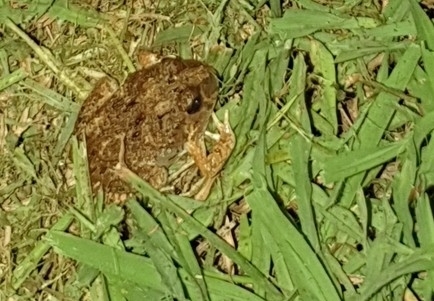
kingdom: Animalia
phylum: Chordata
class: Amphibia
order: Anura
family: Limnodynastidae
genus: Platyplectrum
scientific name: Platyplectrum ornatum
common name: Ornate burrowing frog
